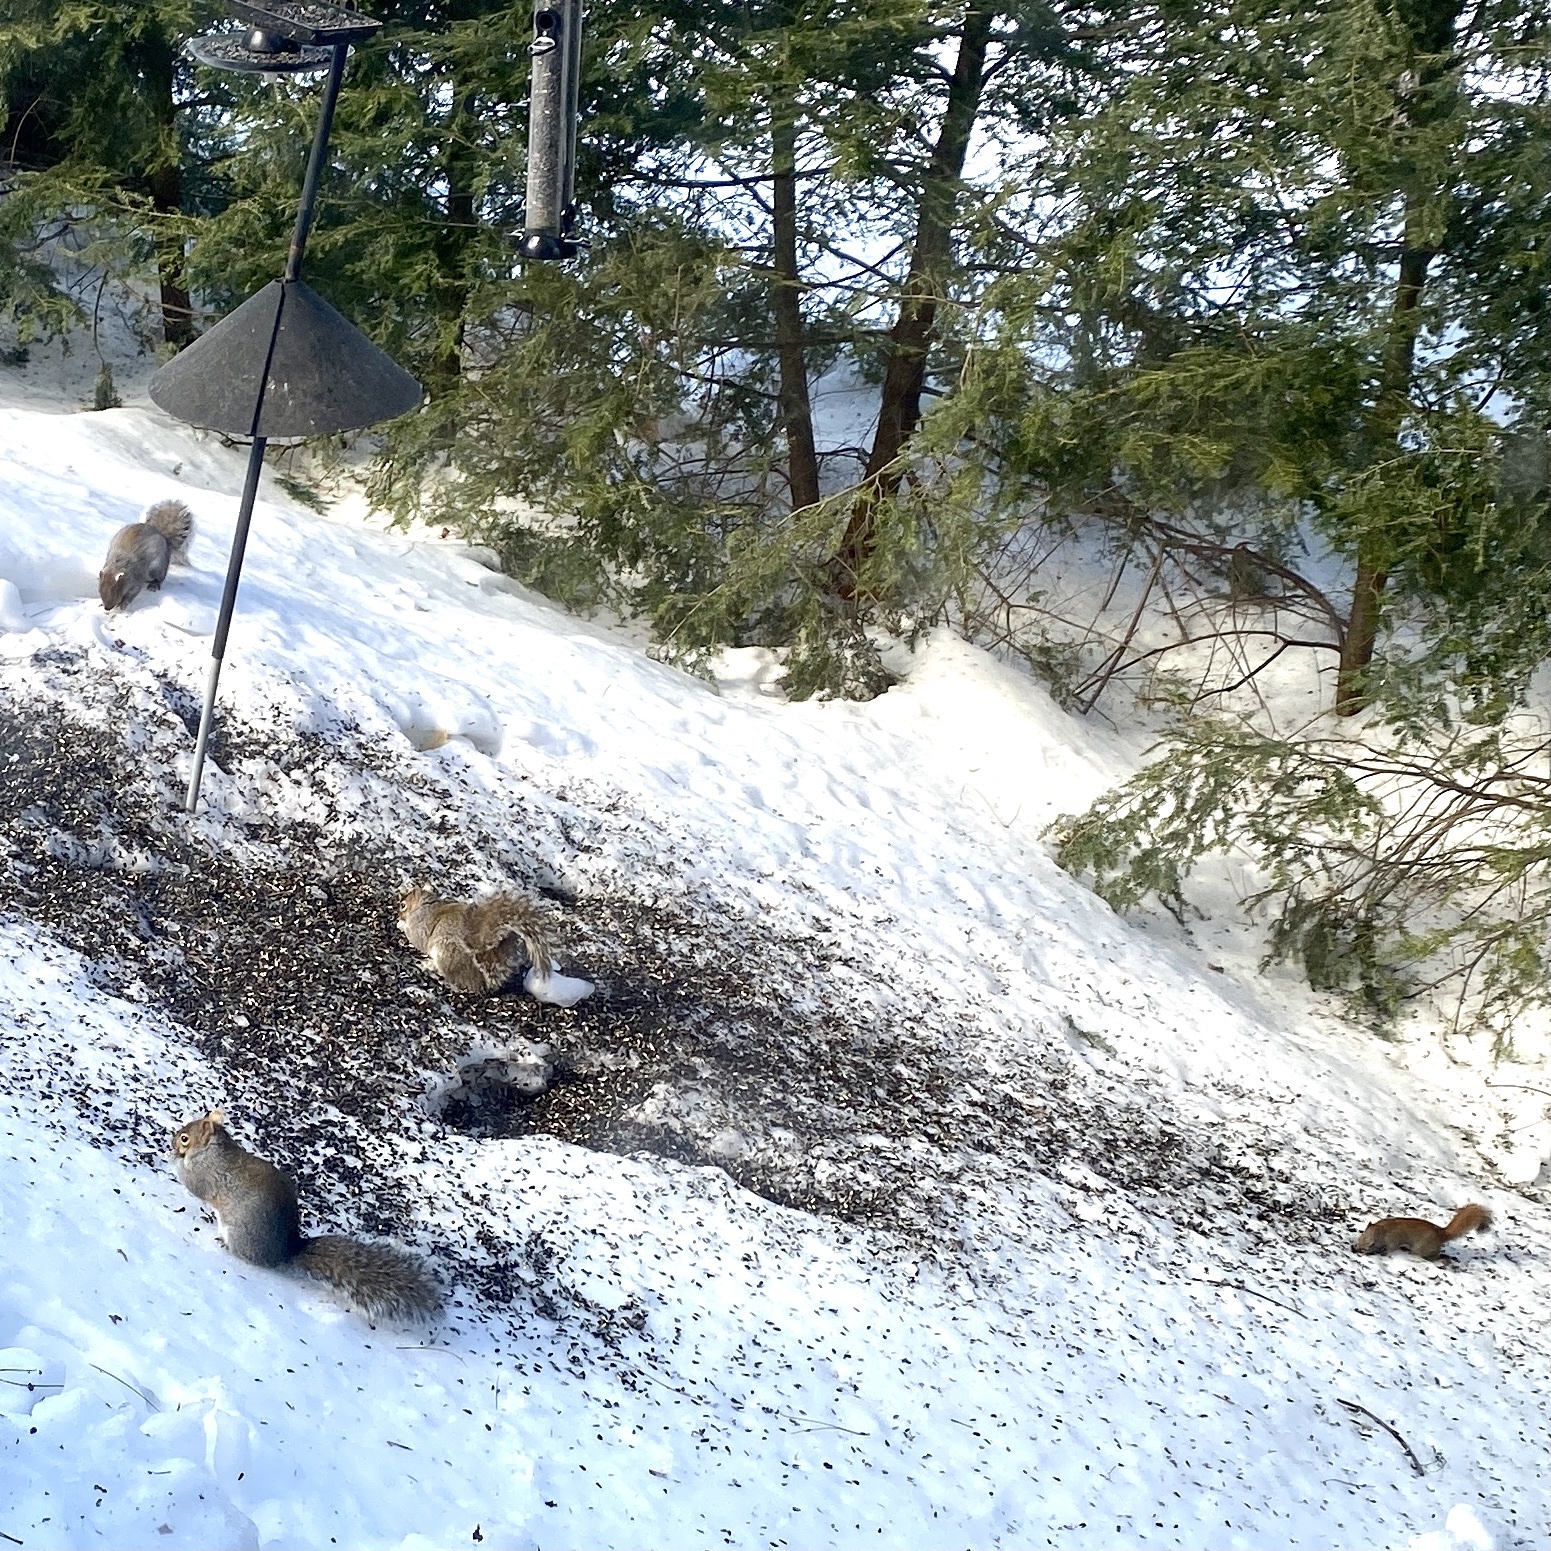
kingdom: Animalia
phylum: Chordata
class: Mammalia
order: Rodentia
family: Sciuridae
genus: Tamiasciurus
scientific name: Tamiasciurus hudsonicus
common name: Red squirrel
